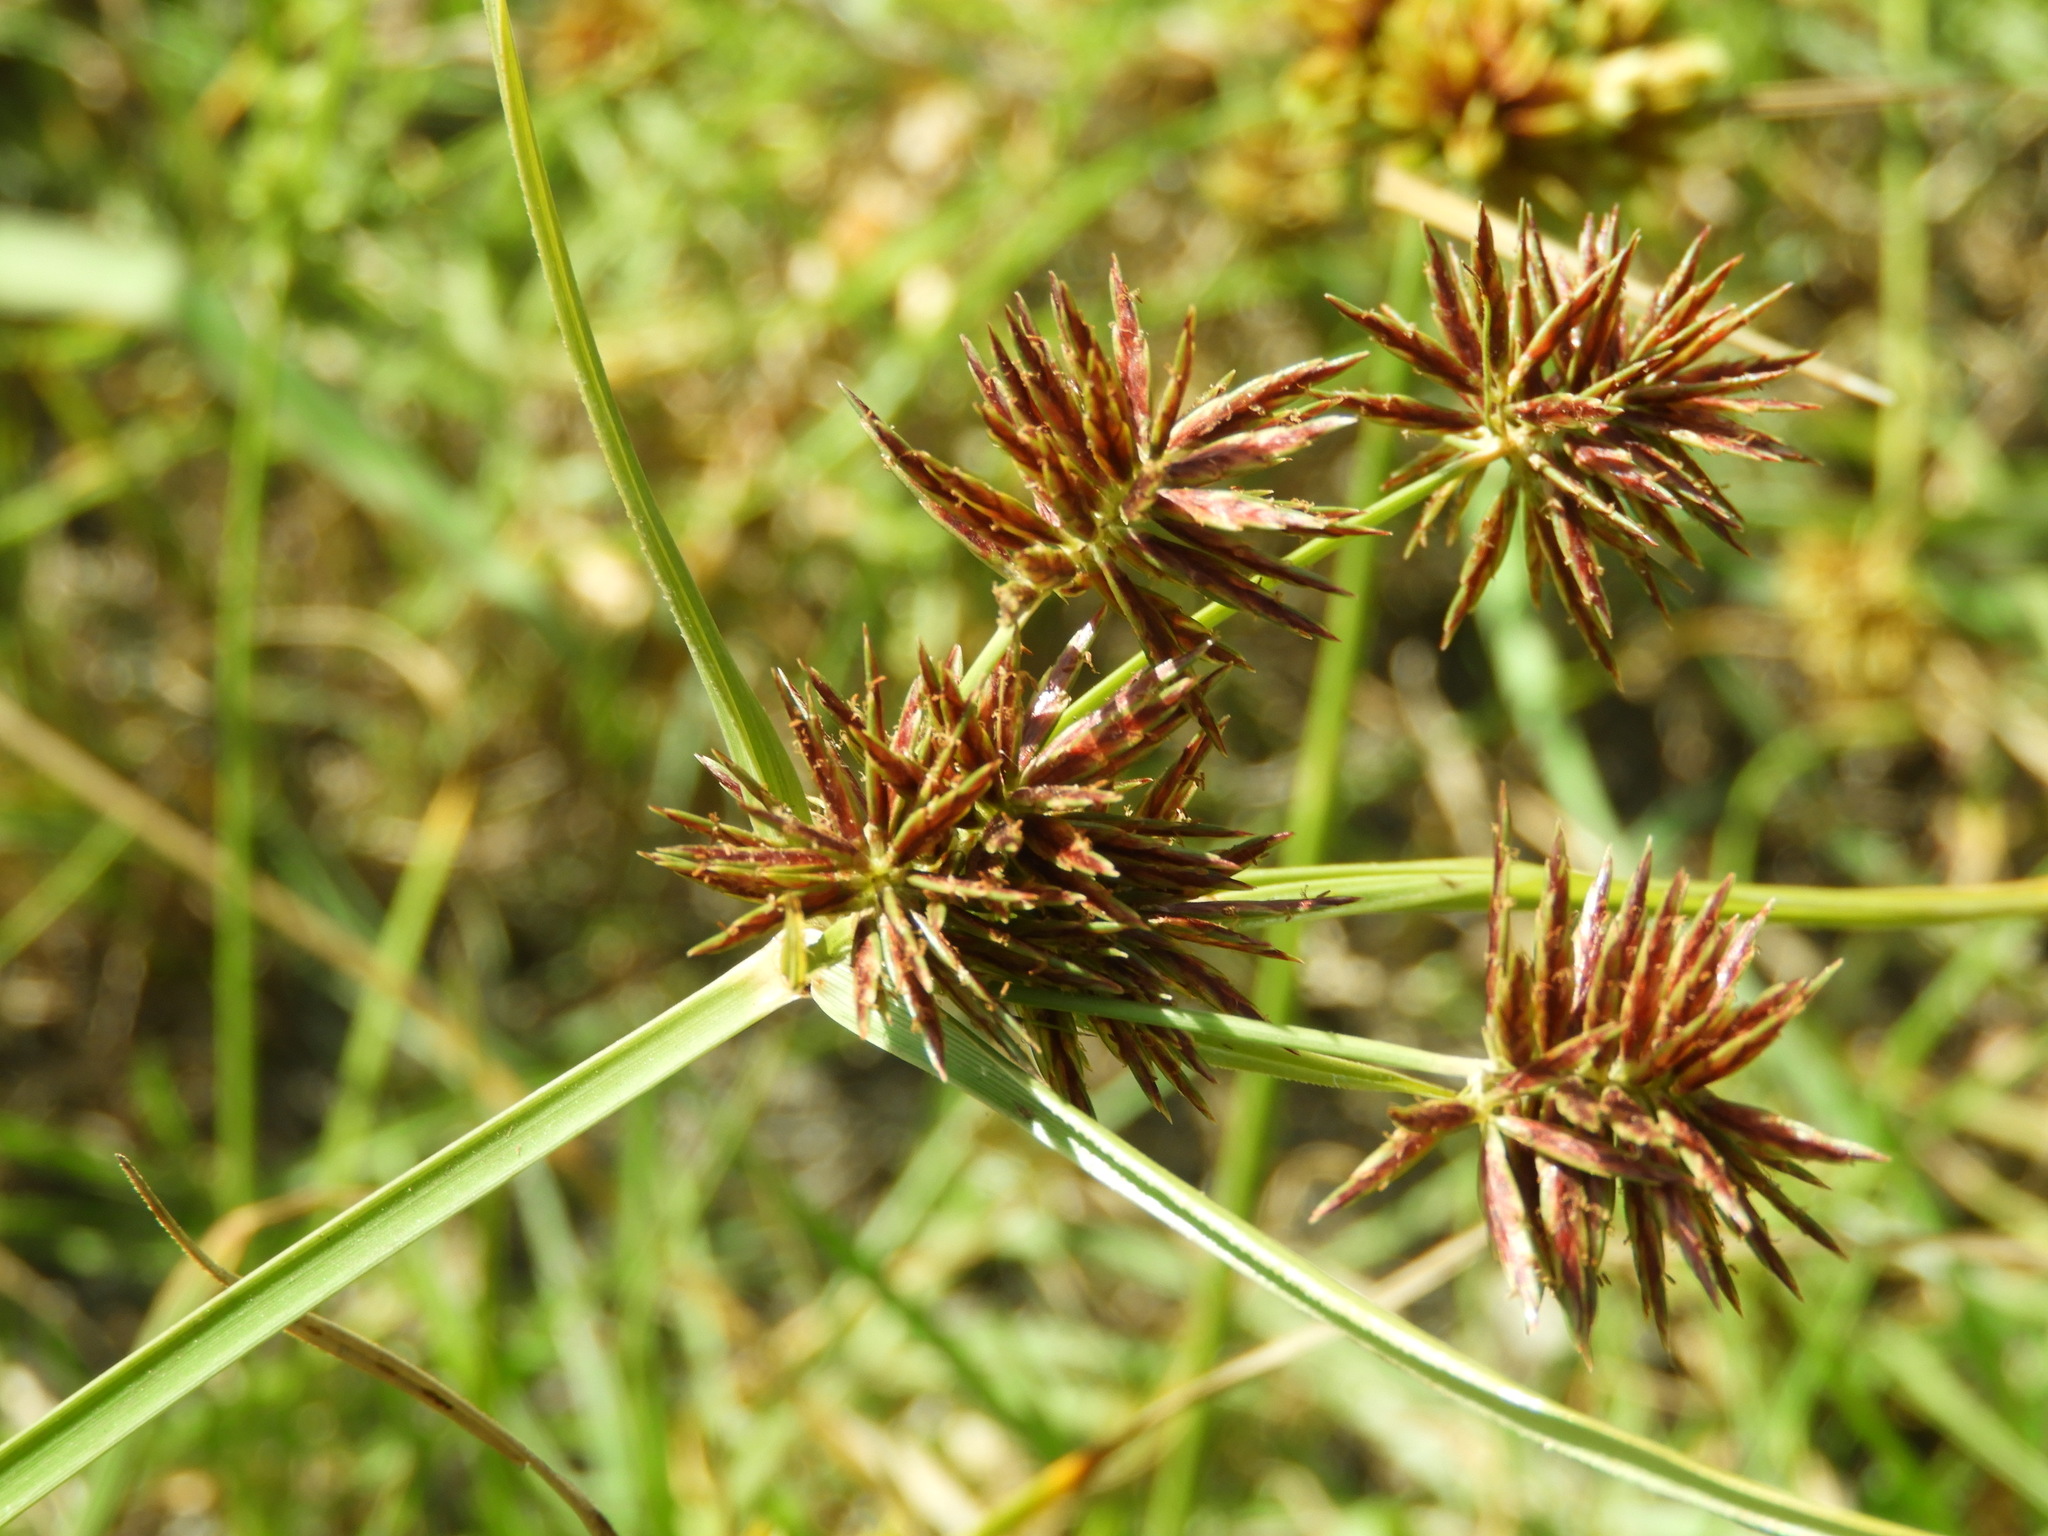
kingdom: Plantae
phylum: Tracheophyta
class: Liliopsida
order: Poales
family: Cyperaceae
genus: Cyperus
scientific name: Cyperus congestus
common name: Dense flat sedge
